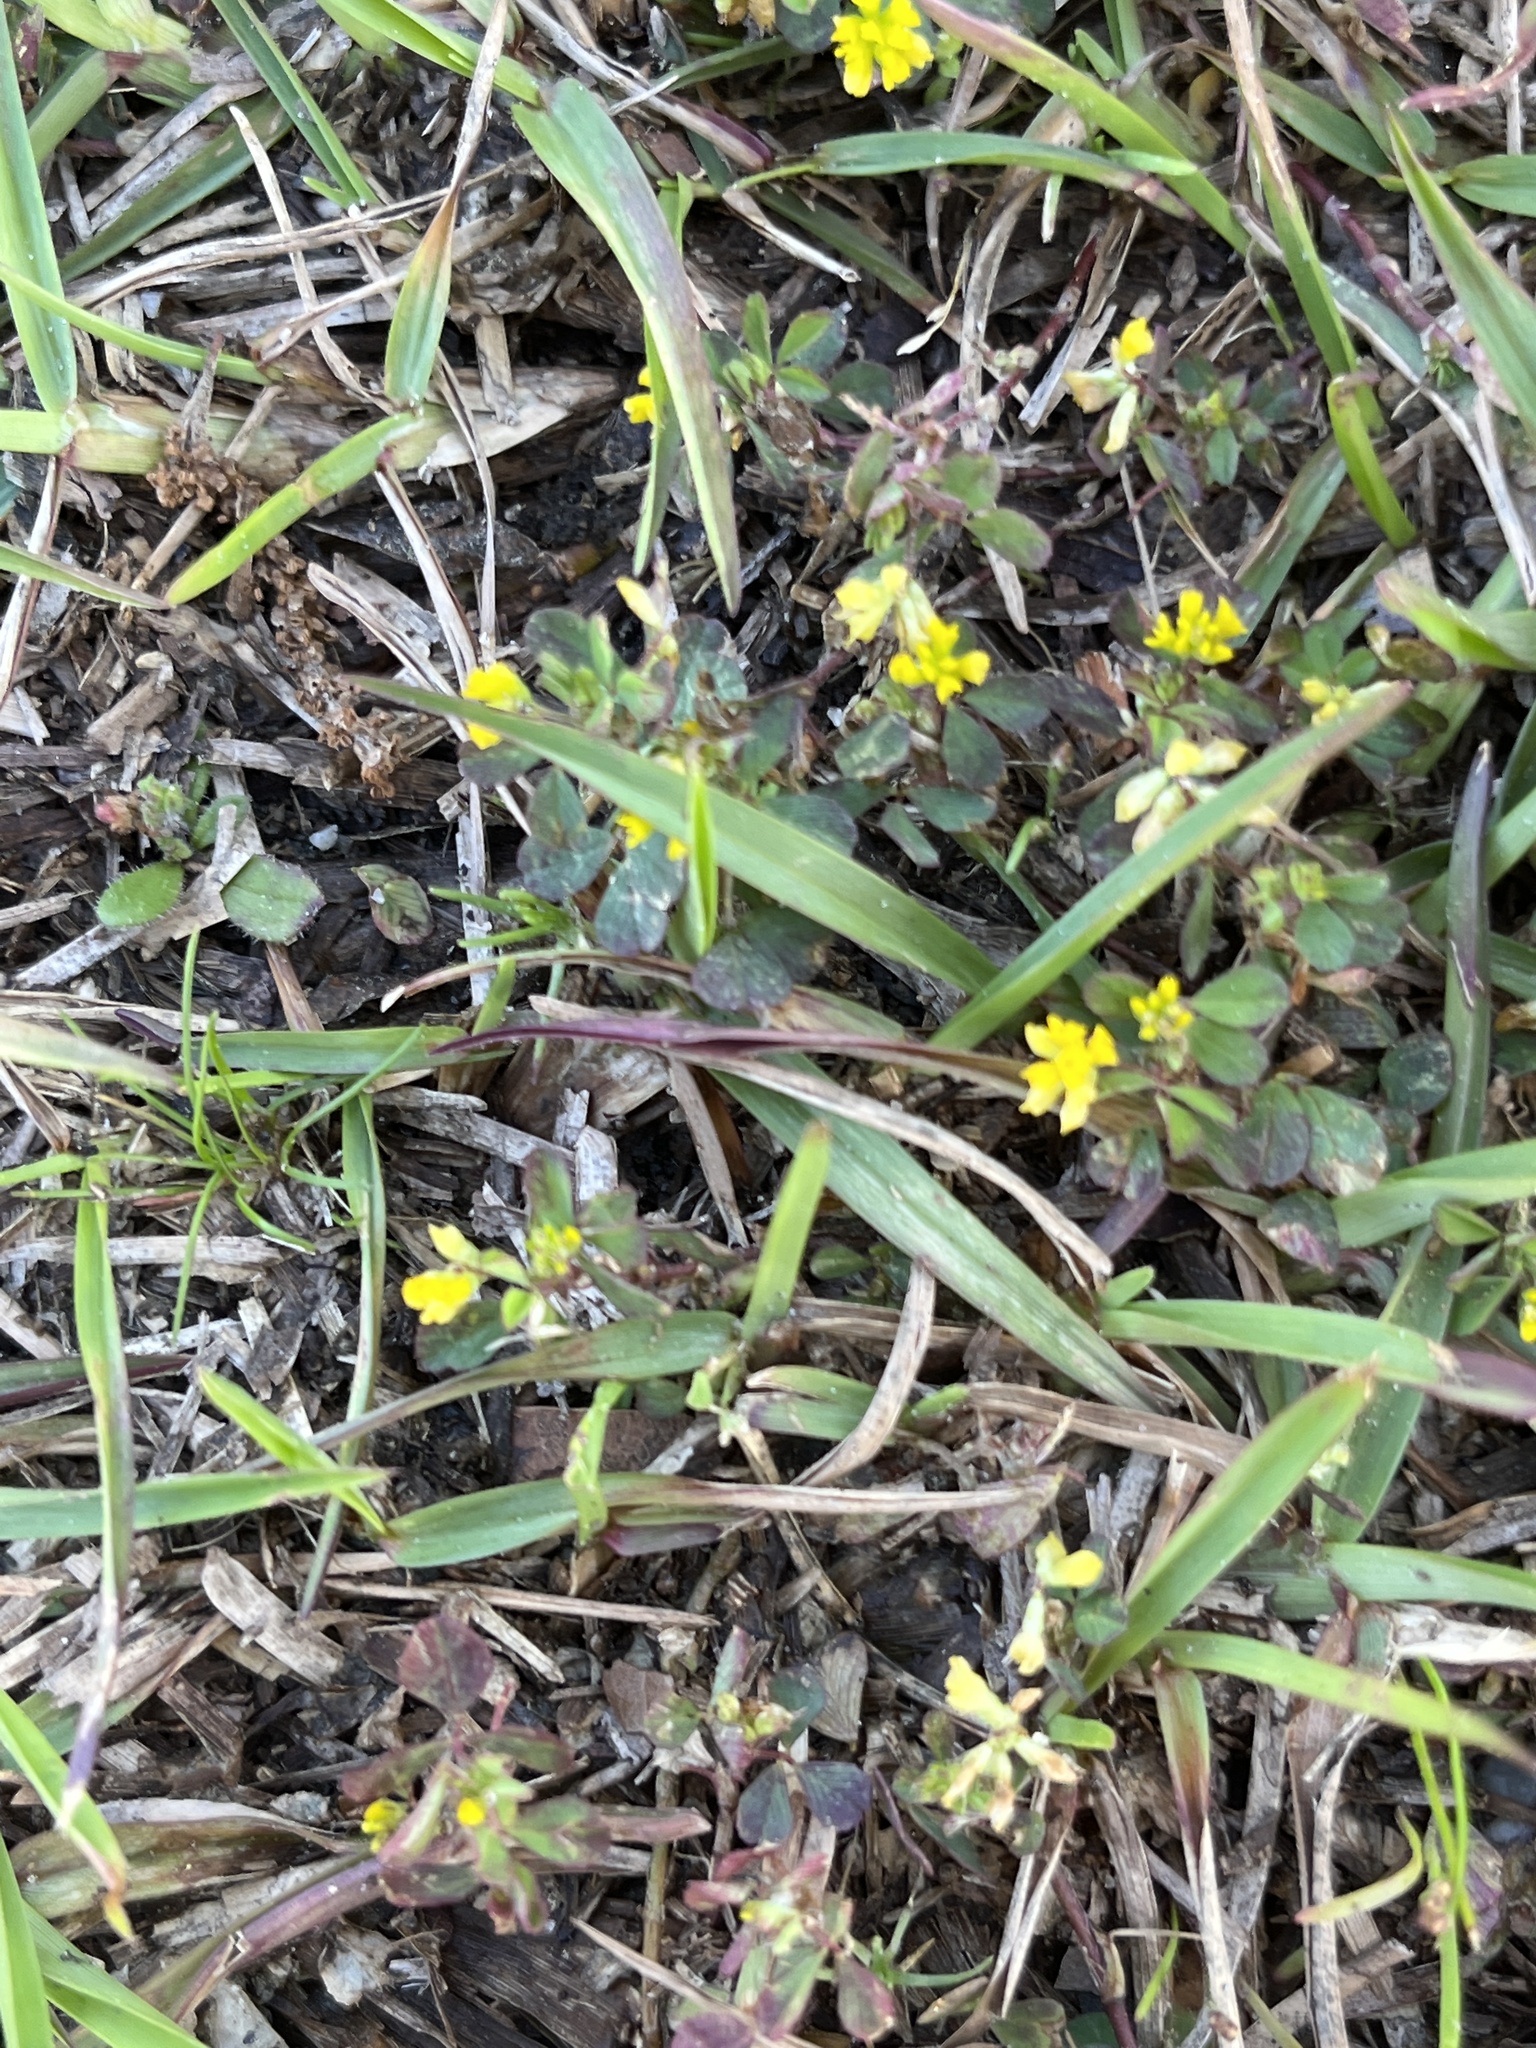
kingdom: Plantae
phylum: Tracheophyta
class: Magnoliopsida
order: Fabales
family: Fabaceae
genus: Trifolium
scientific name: Trifolium dubium
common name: Suckling clover
